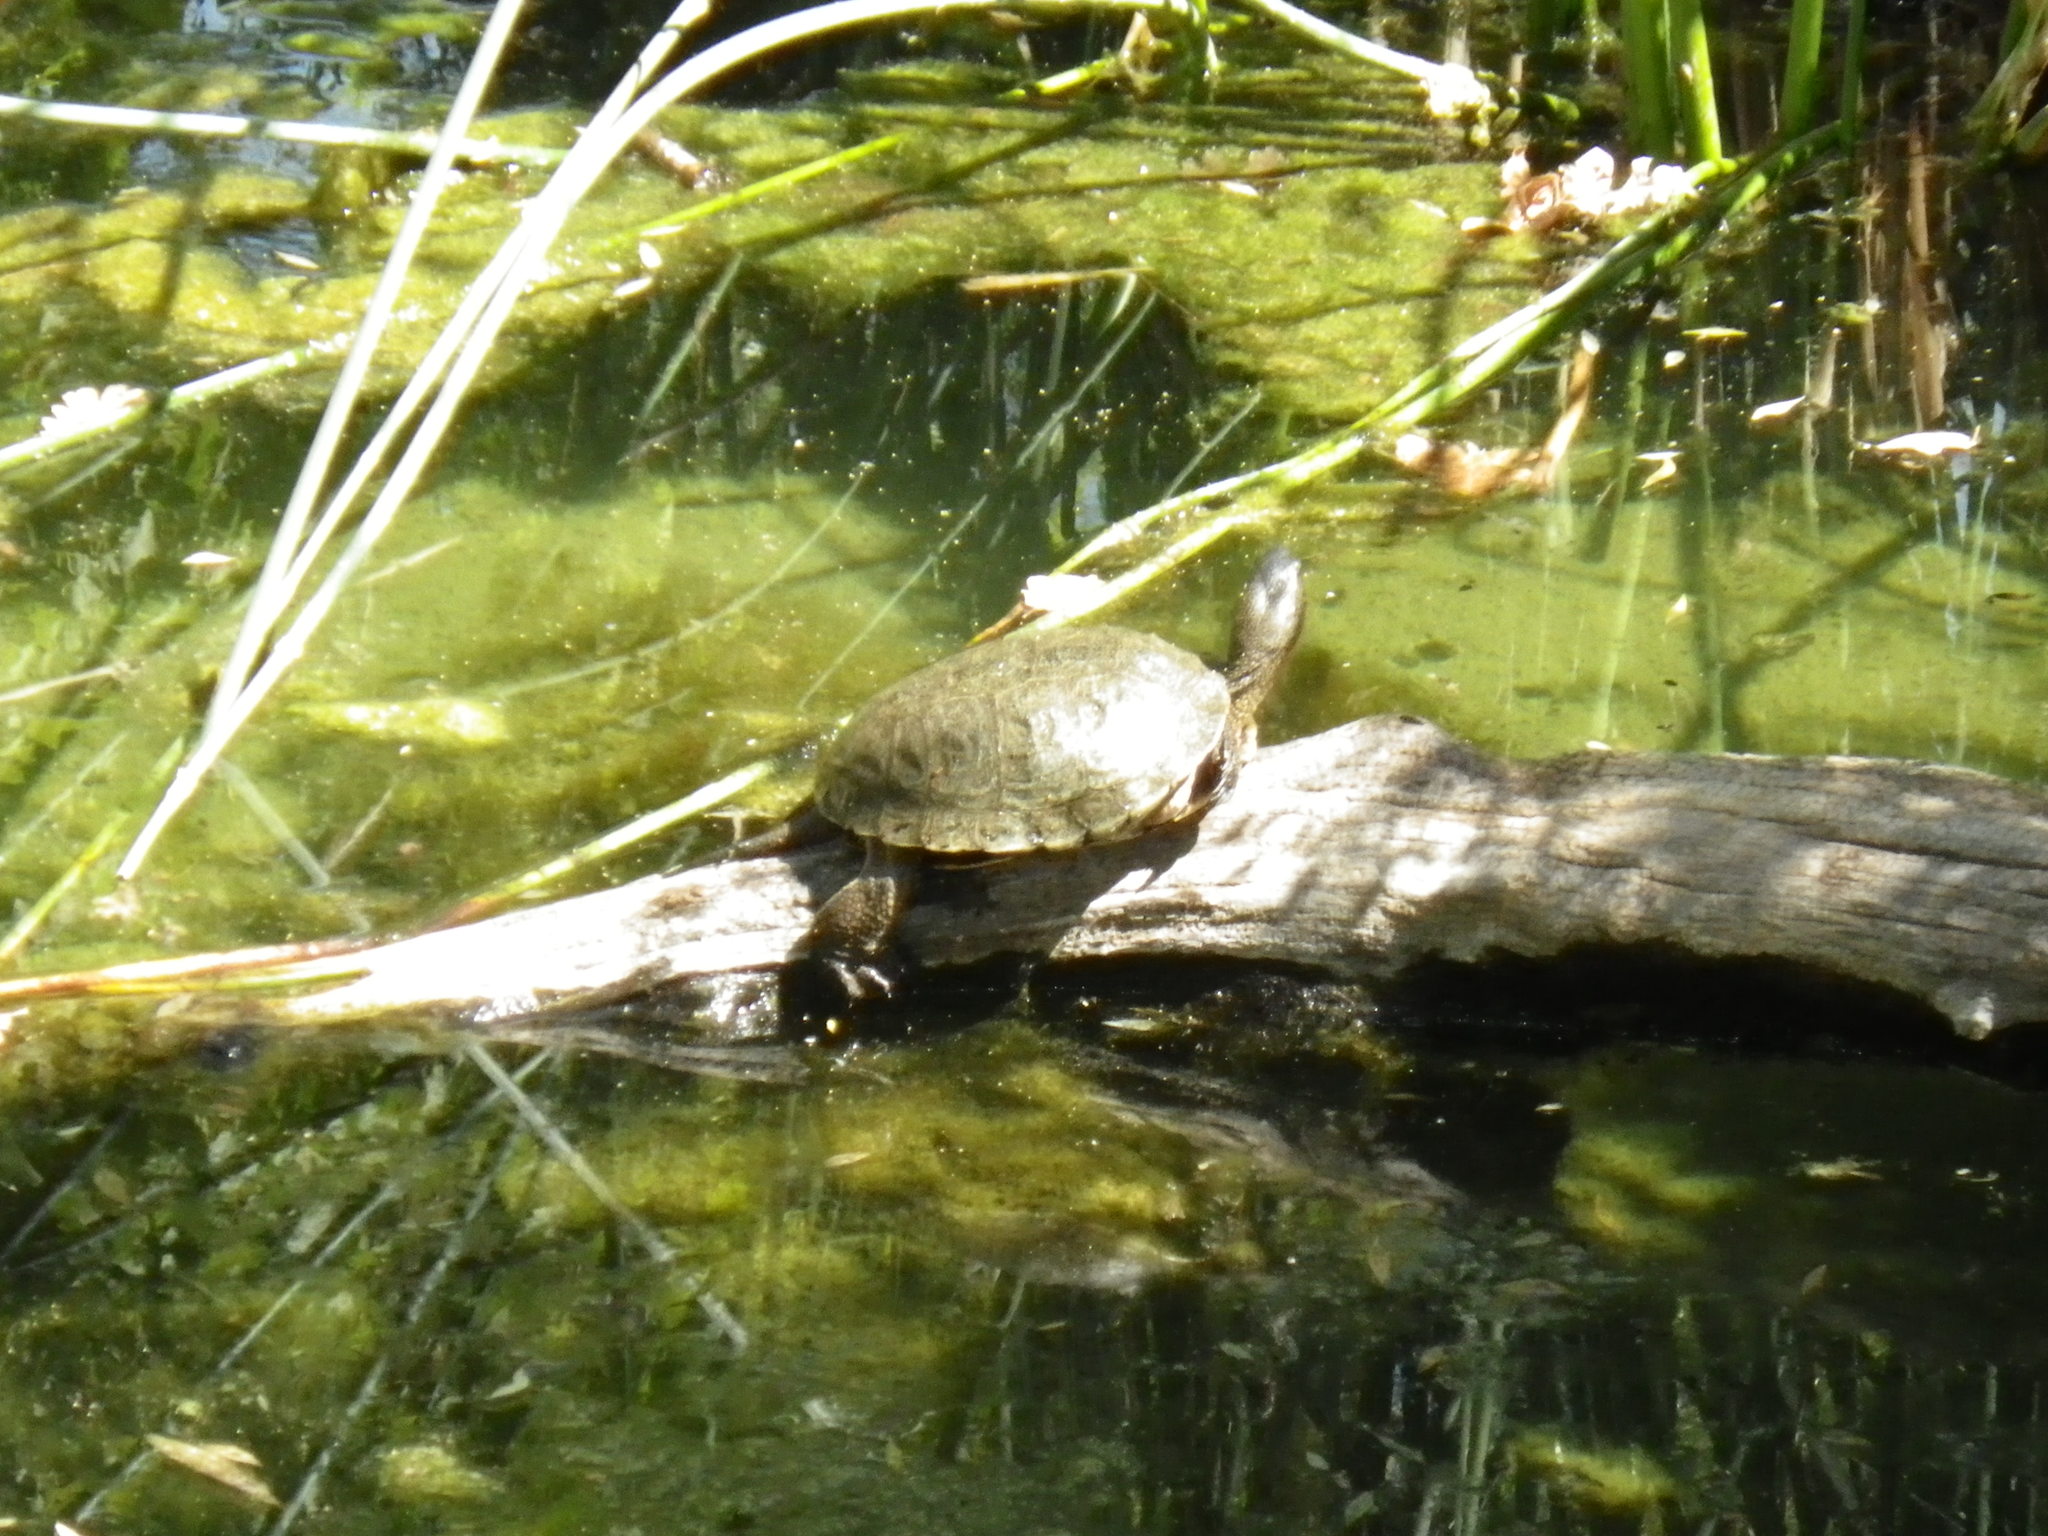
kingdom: Animalia
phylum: Chordata
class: Testudines
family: Emydidae
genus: Actinemys
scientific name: Actinemys marmorata
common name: Western pond turtle
